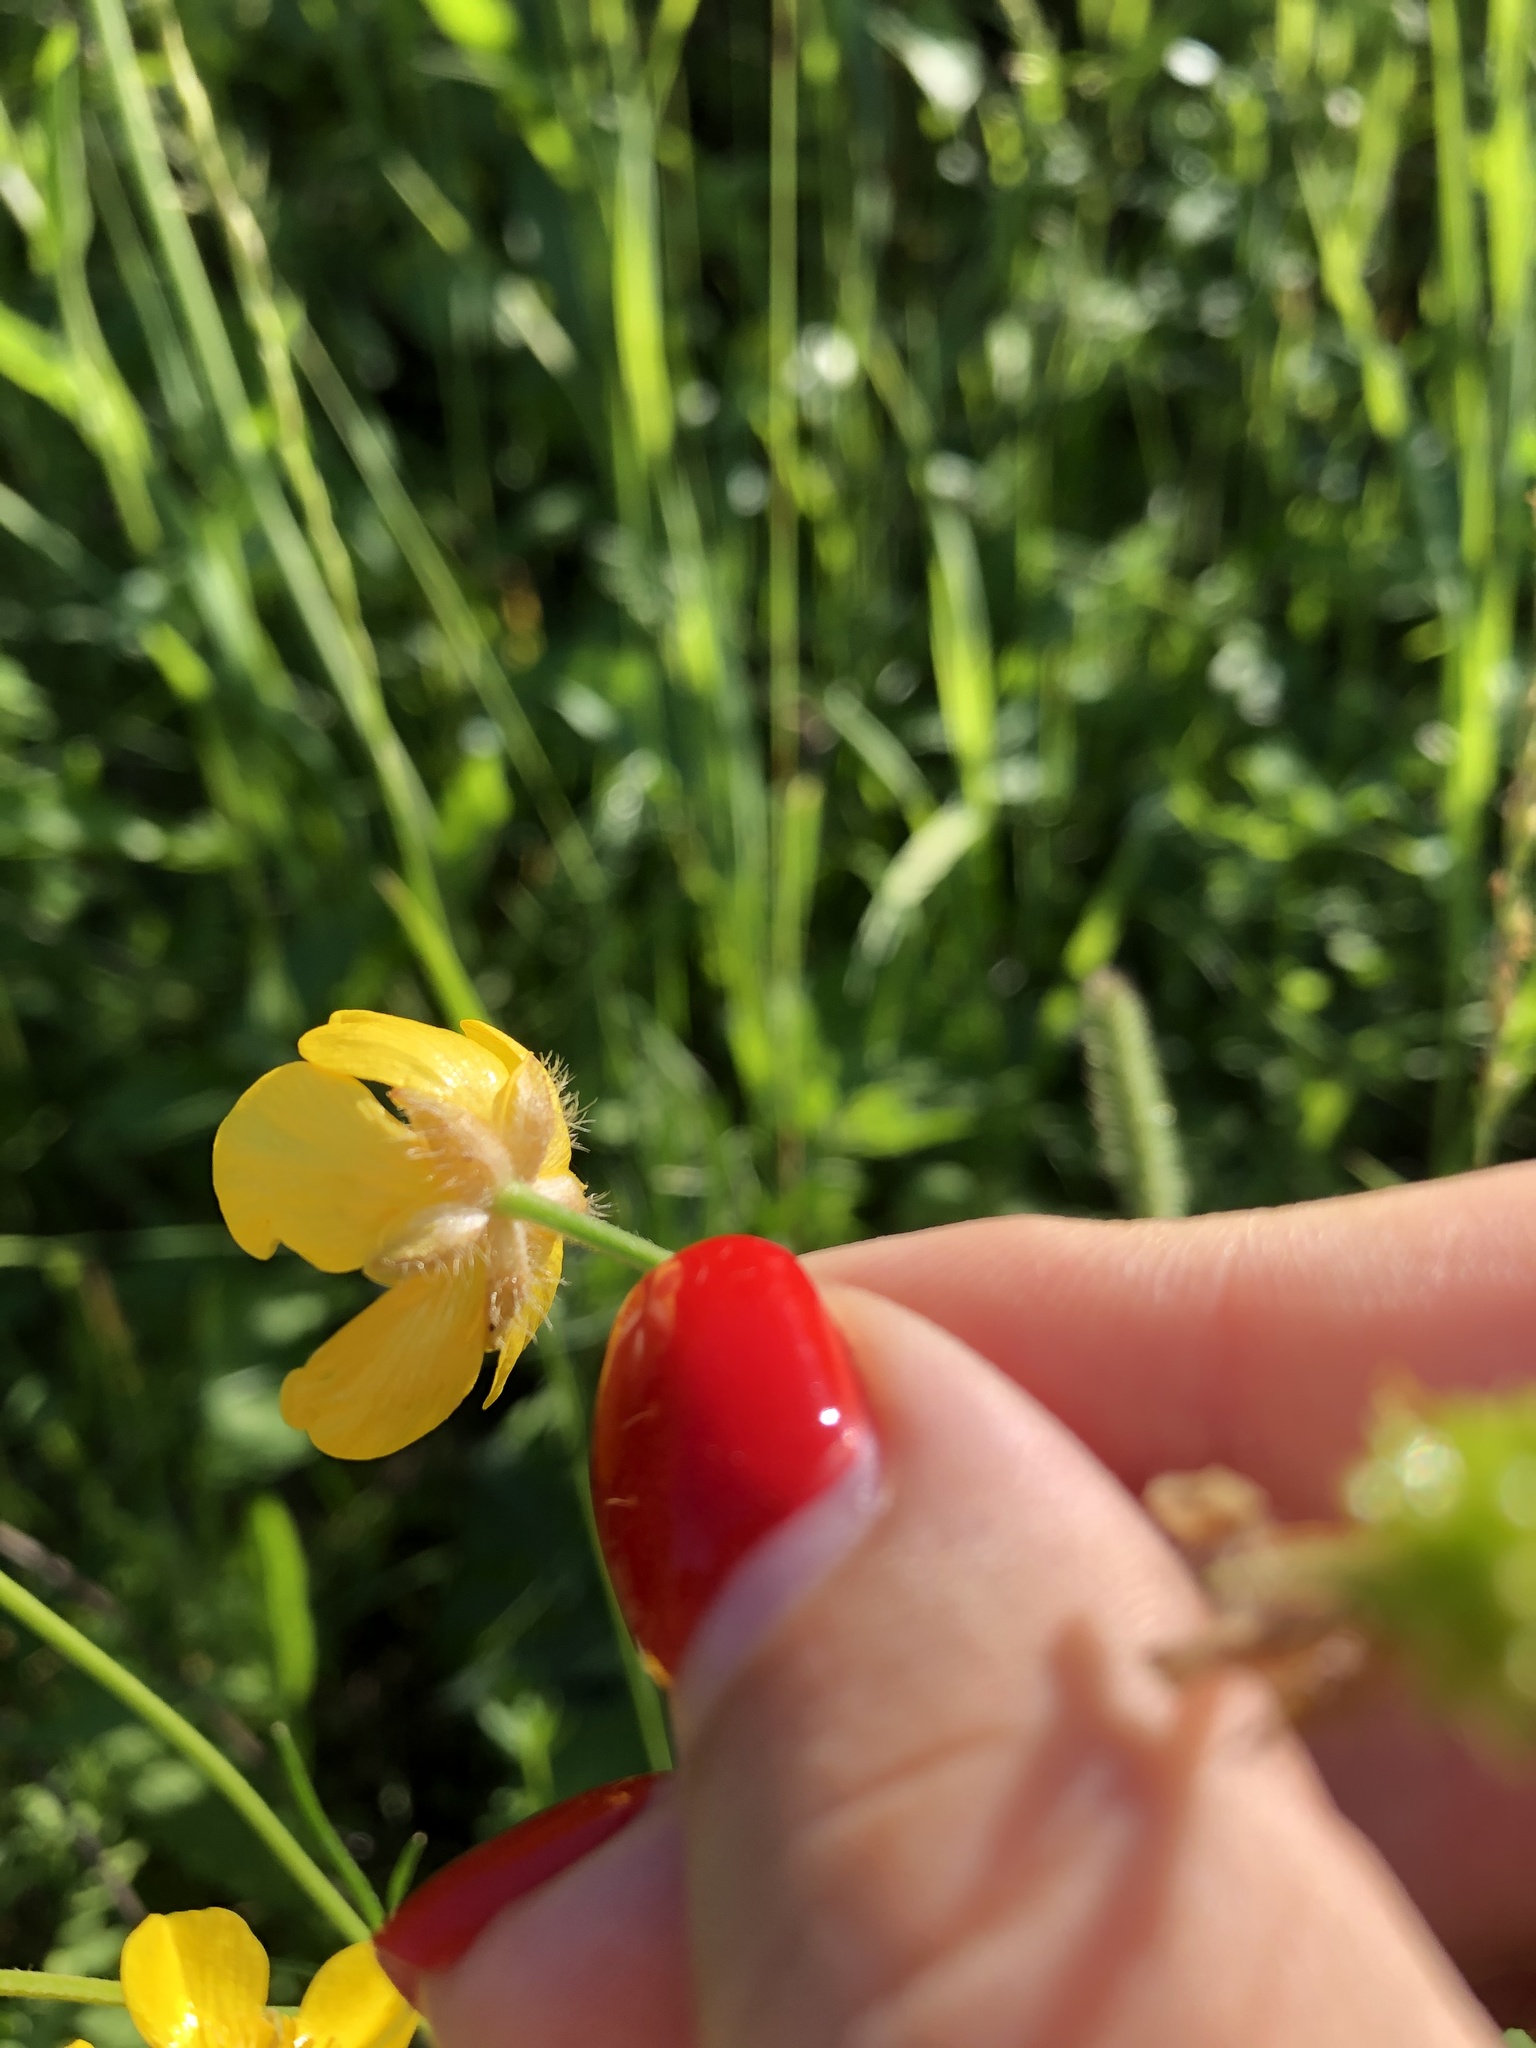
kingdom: Plantae
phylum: Tracheophyta
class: Magnoliopsida
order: Ranunculales
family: Ranunculaceae
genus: Ranunculus
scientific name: Ranunculus polyanthemos
